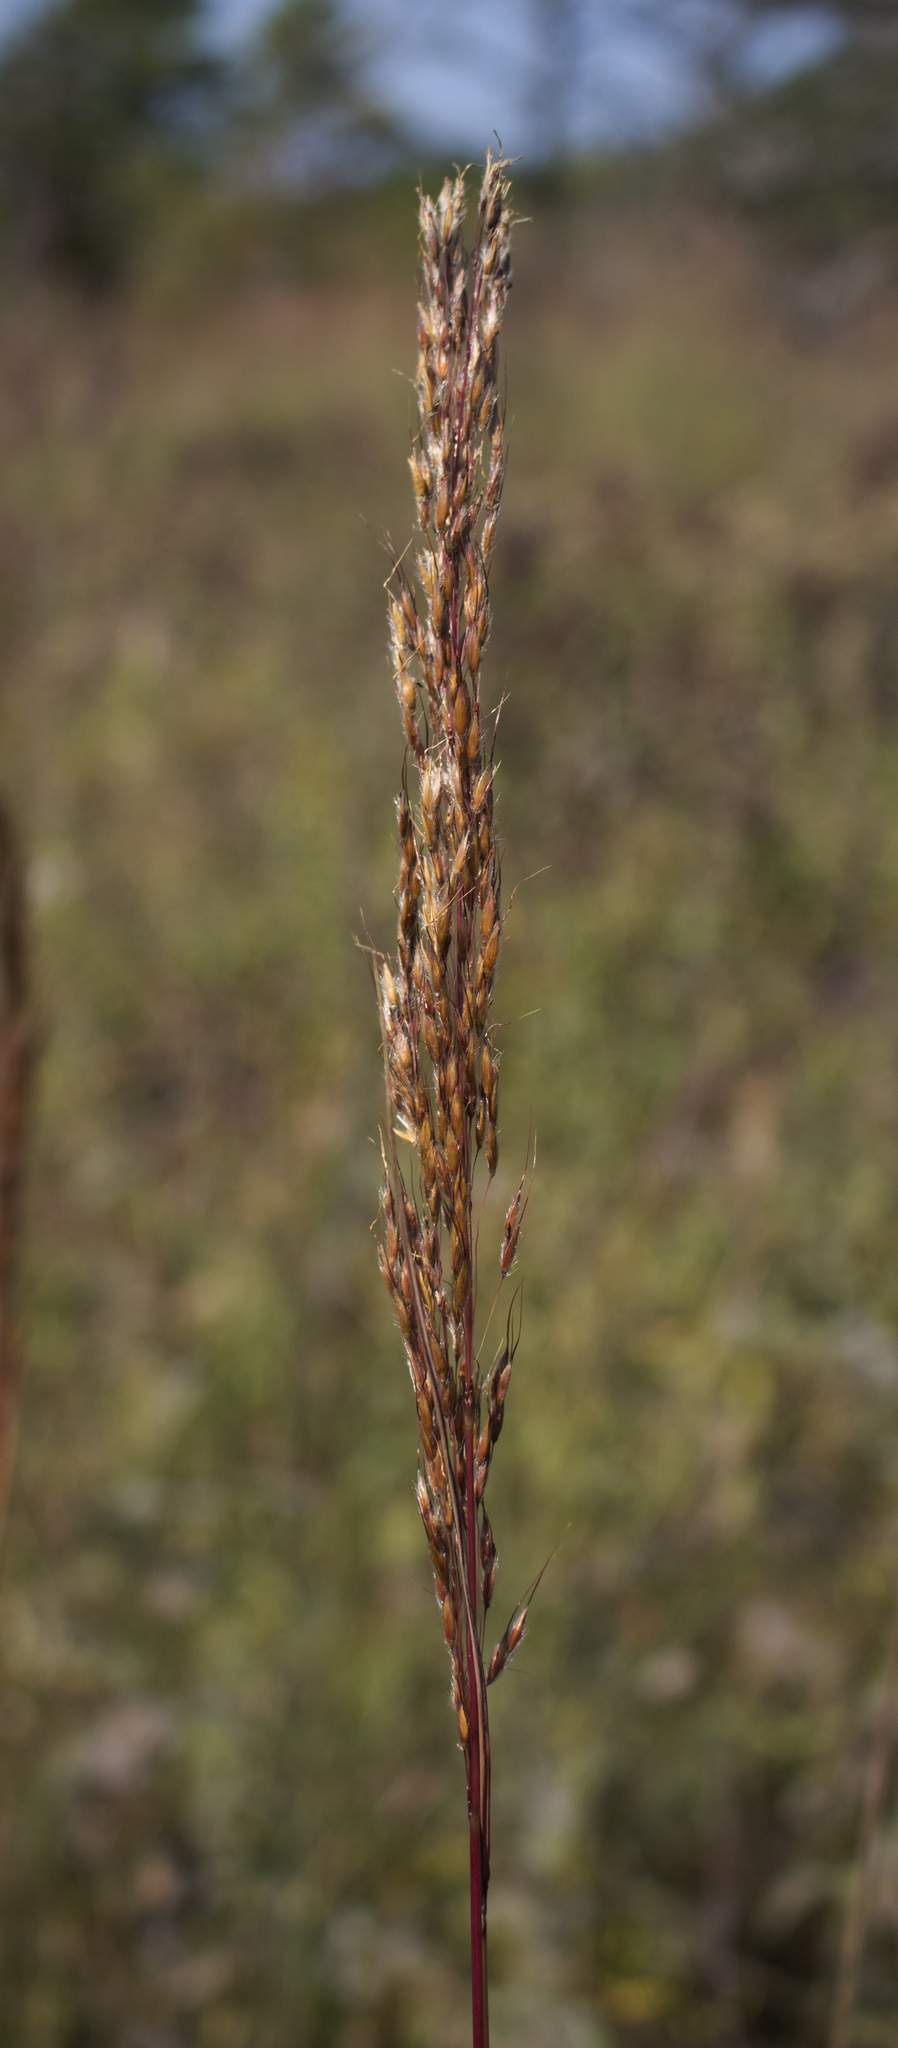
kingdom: Plantae
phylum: Tracheophyta
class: Liliopsida
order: Poales
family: Poaceae
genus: Sorghastrum
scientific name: Sorghastrum nutans
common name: Indian grass
